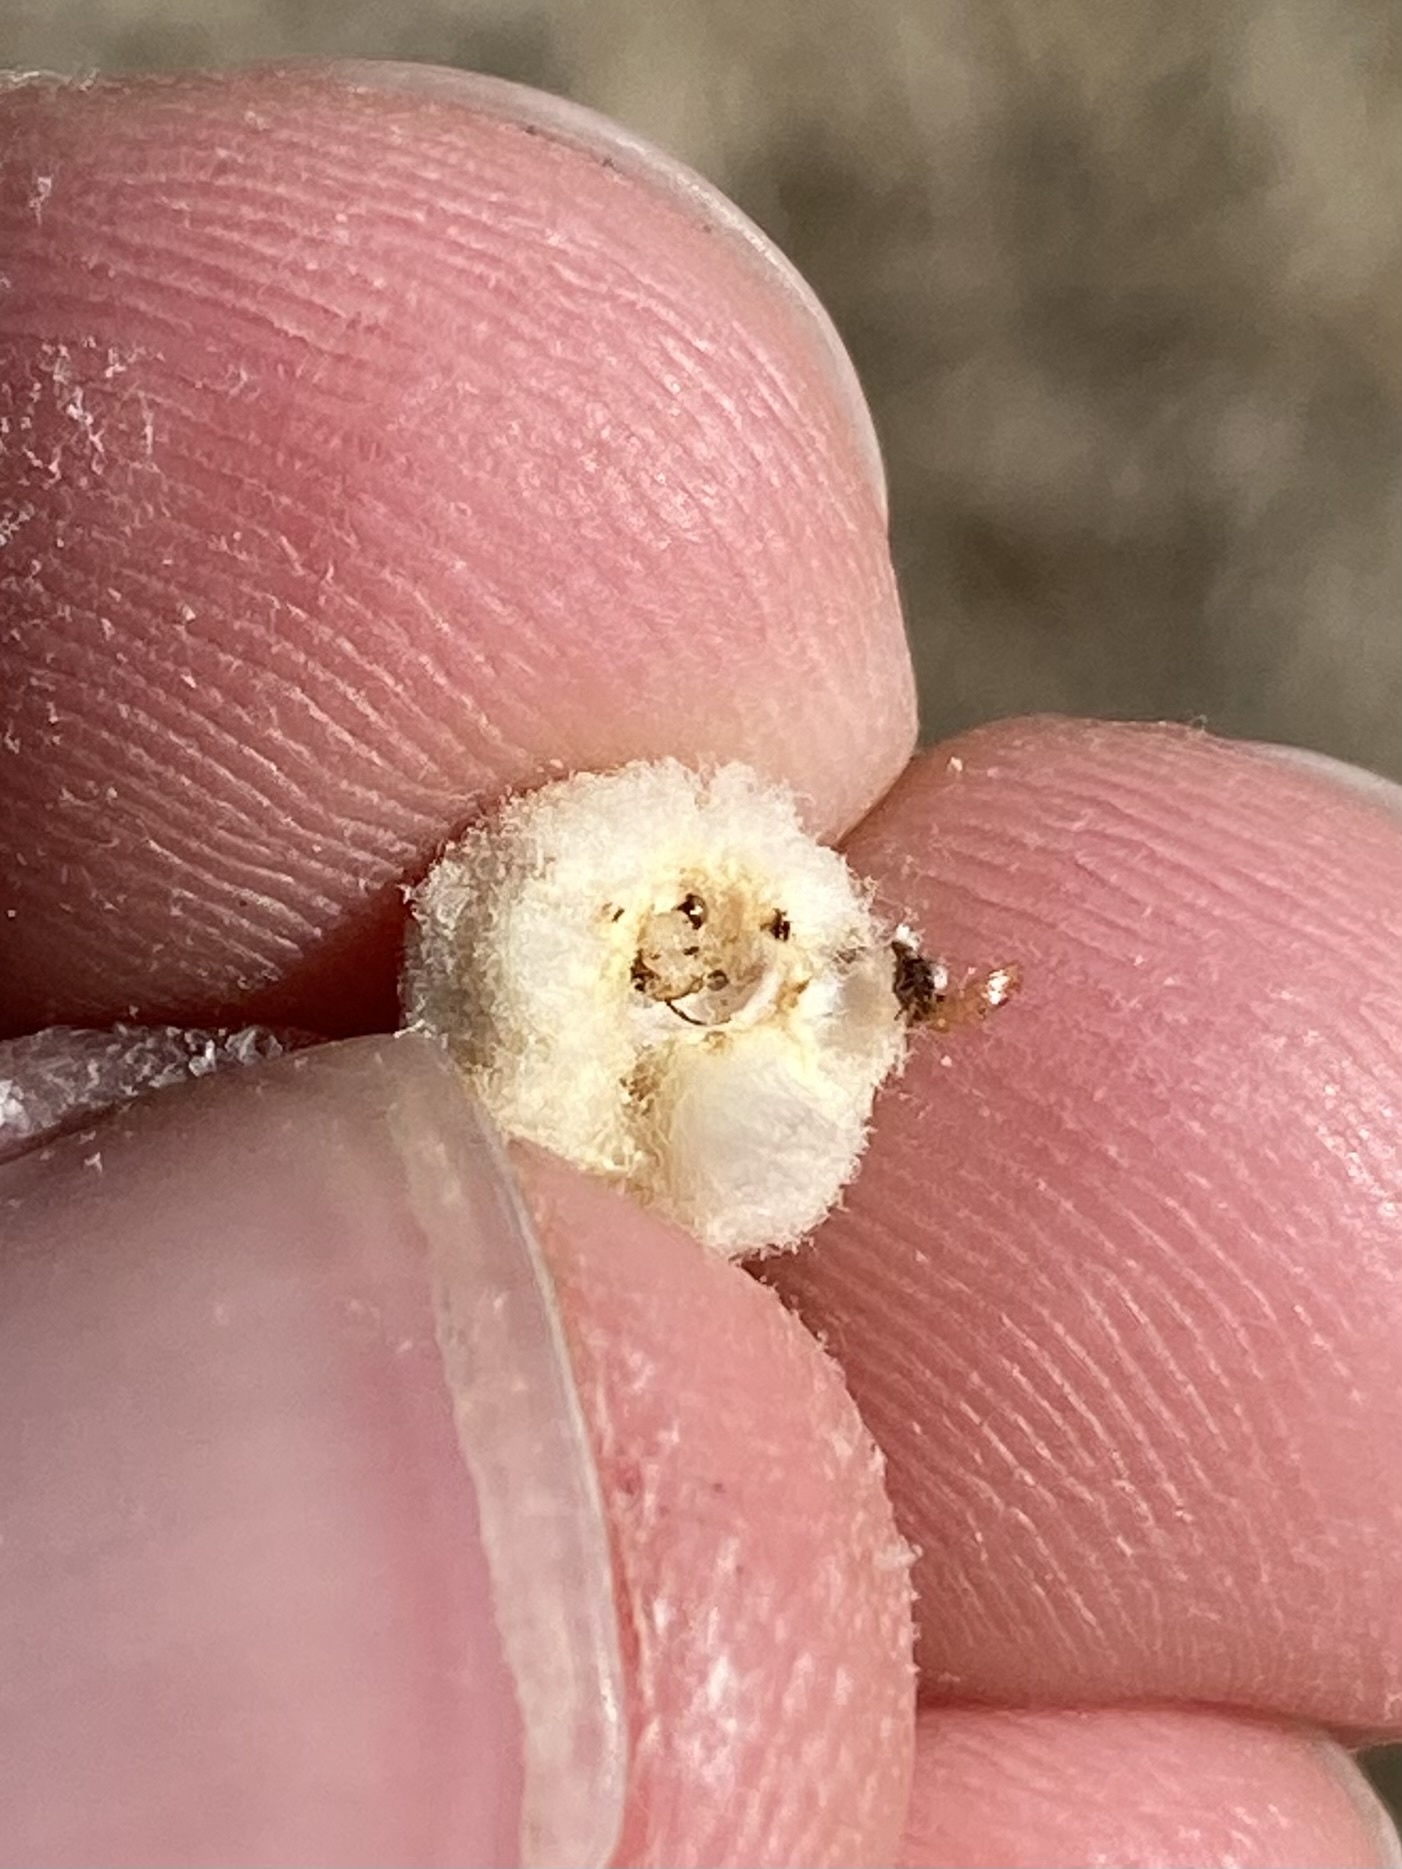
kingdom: Animalia
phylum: Arthropoda
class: Insecta
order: Diptera
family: Cecidomyiidae
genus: Asphondylia
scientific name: Asphondylia neomexicana
